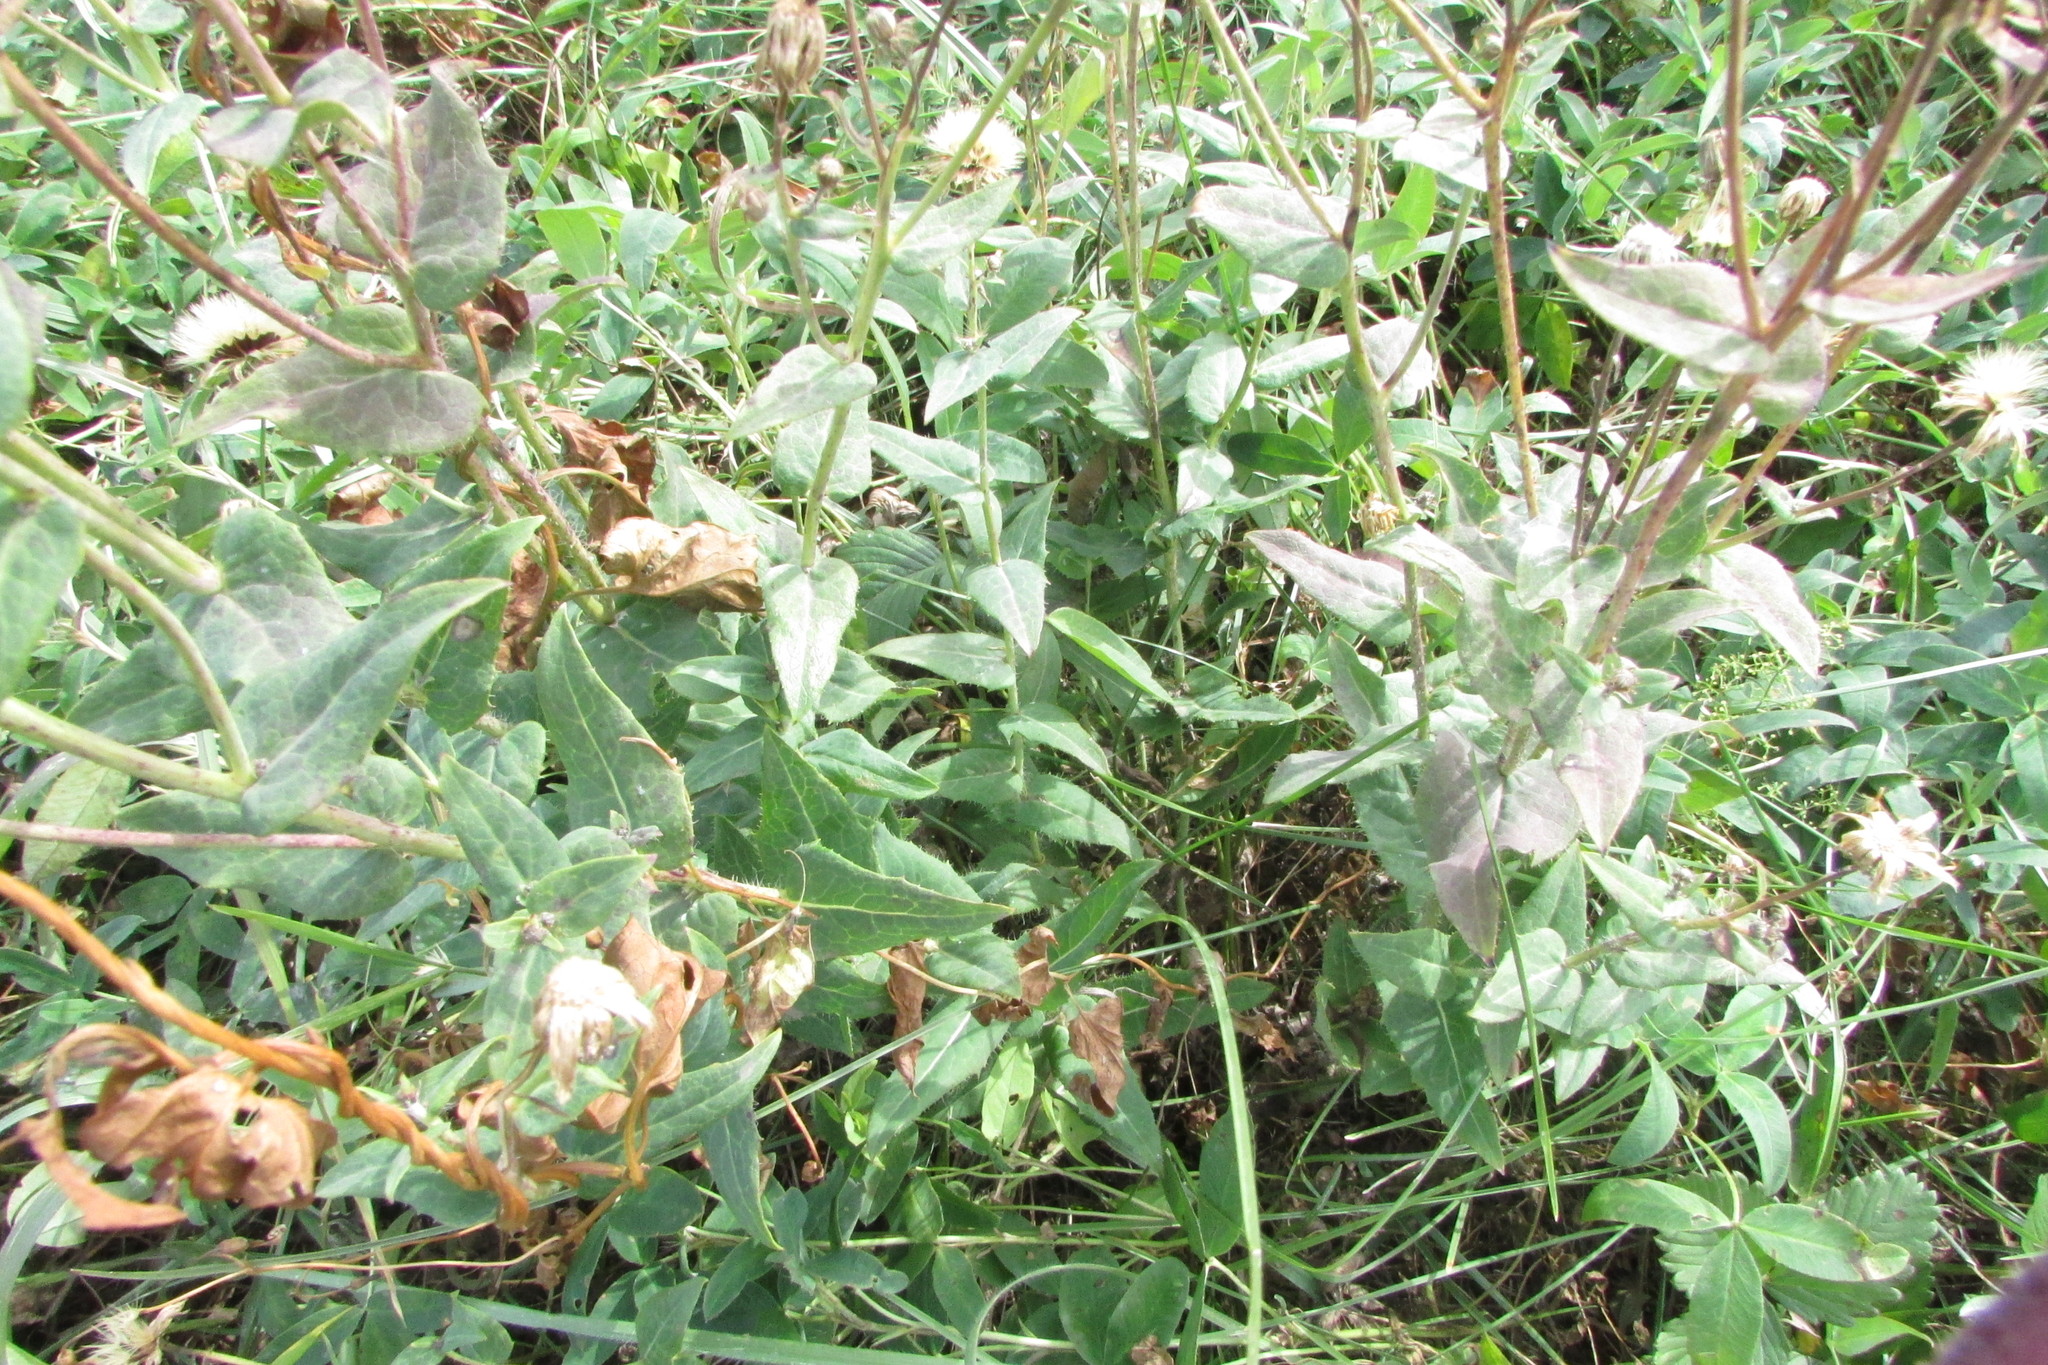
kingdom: Plantae
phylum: Tracheophyta
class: Magnoliopsida
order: Asterales
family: Asteraceae
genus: Hieracium
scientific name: Hieracium virosum
